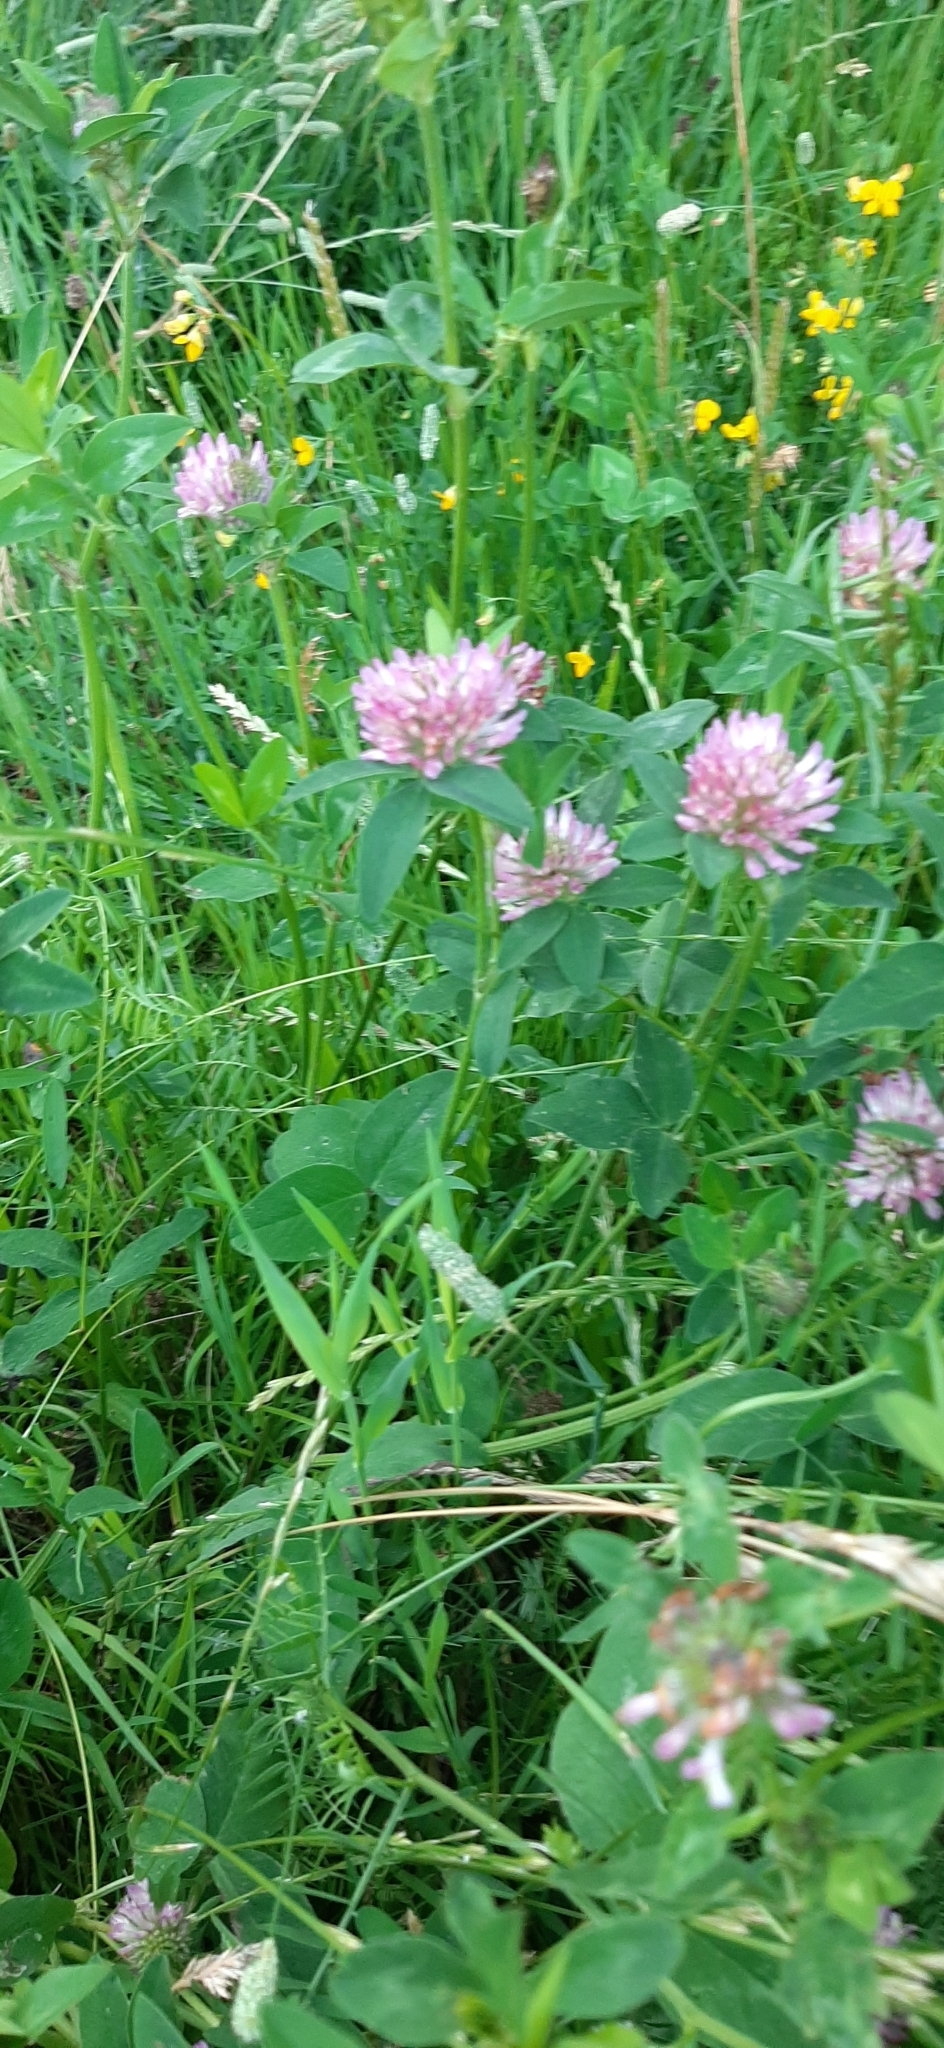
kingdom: Plantae
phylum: Tracheophyta
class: Magnoliopsida
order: Fabales
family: Fabaceae
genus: Trifolium
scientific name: Trifolium pratense
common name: Red clover
